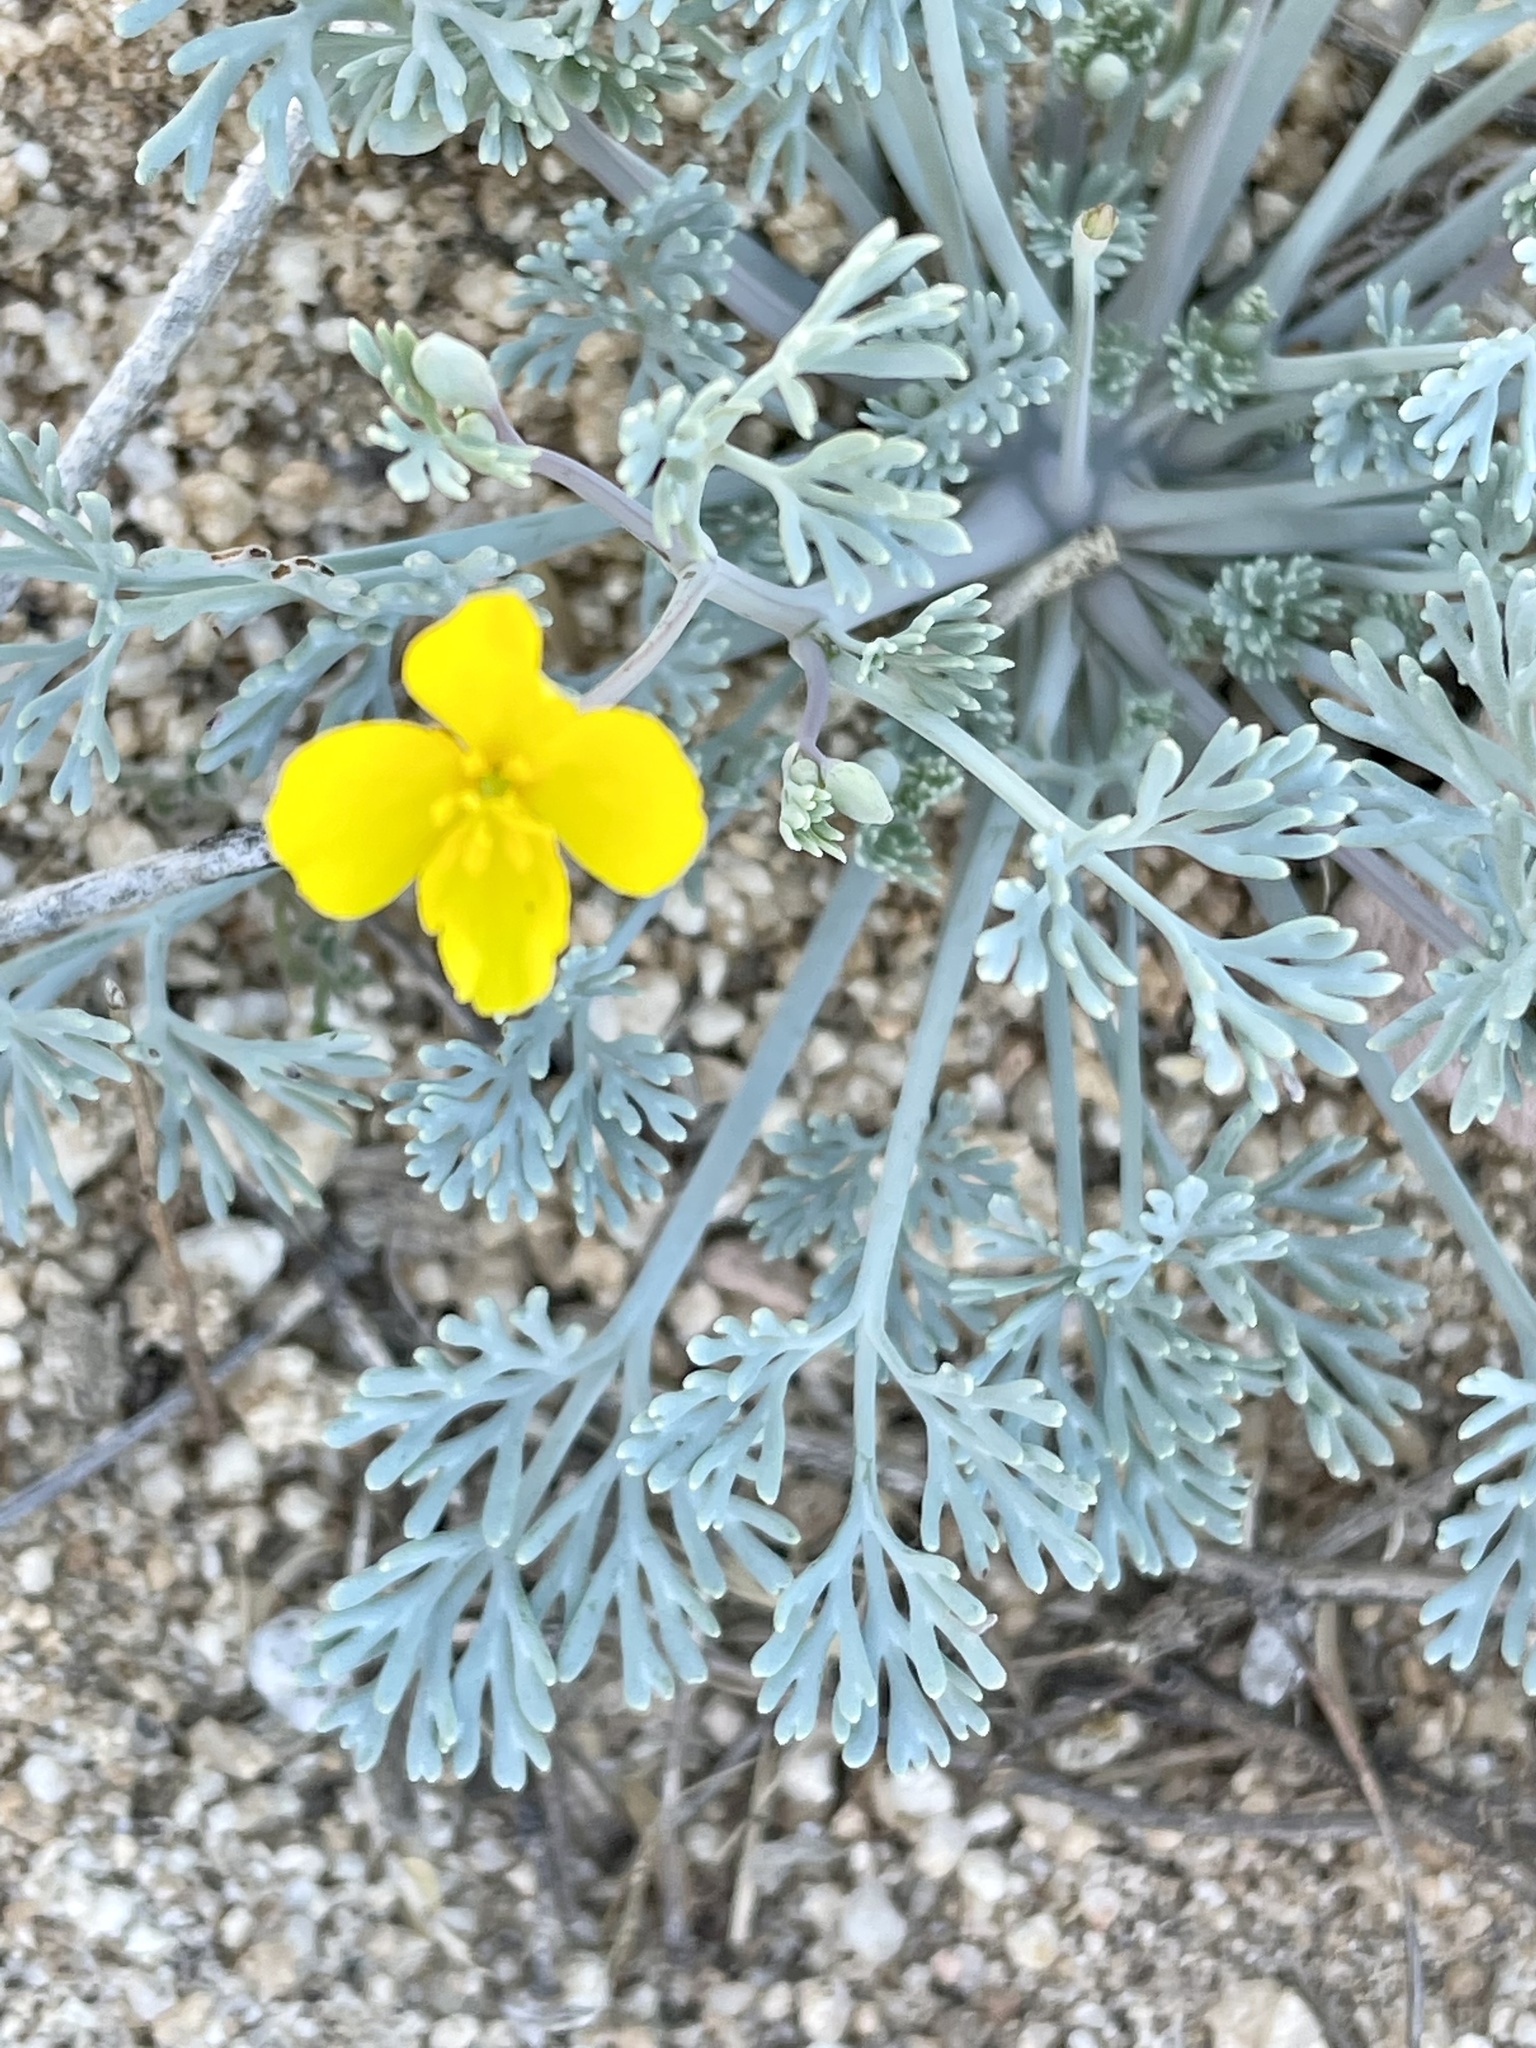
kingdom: Plantae
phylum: Tracheophyta
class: Magnoliopsida
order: Ranunculales
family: Papaveraceae
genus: Eschscholzia
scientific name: Eschscholzia minutiflora
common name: Small-flower california-poppy
